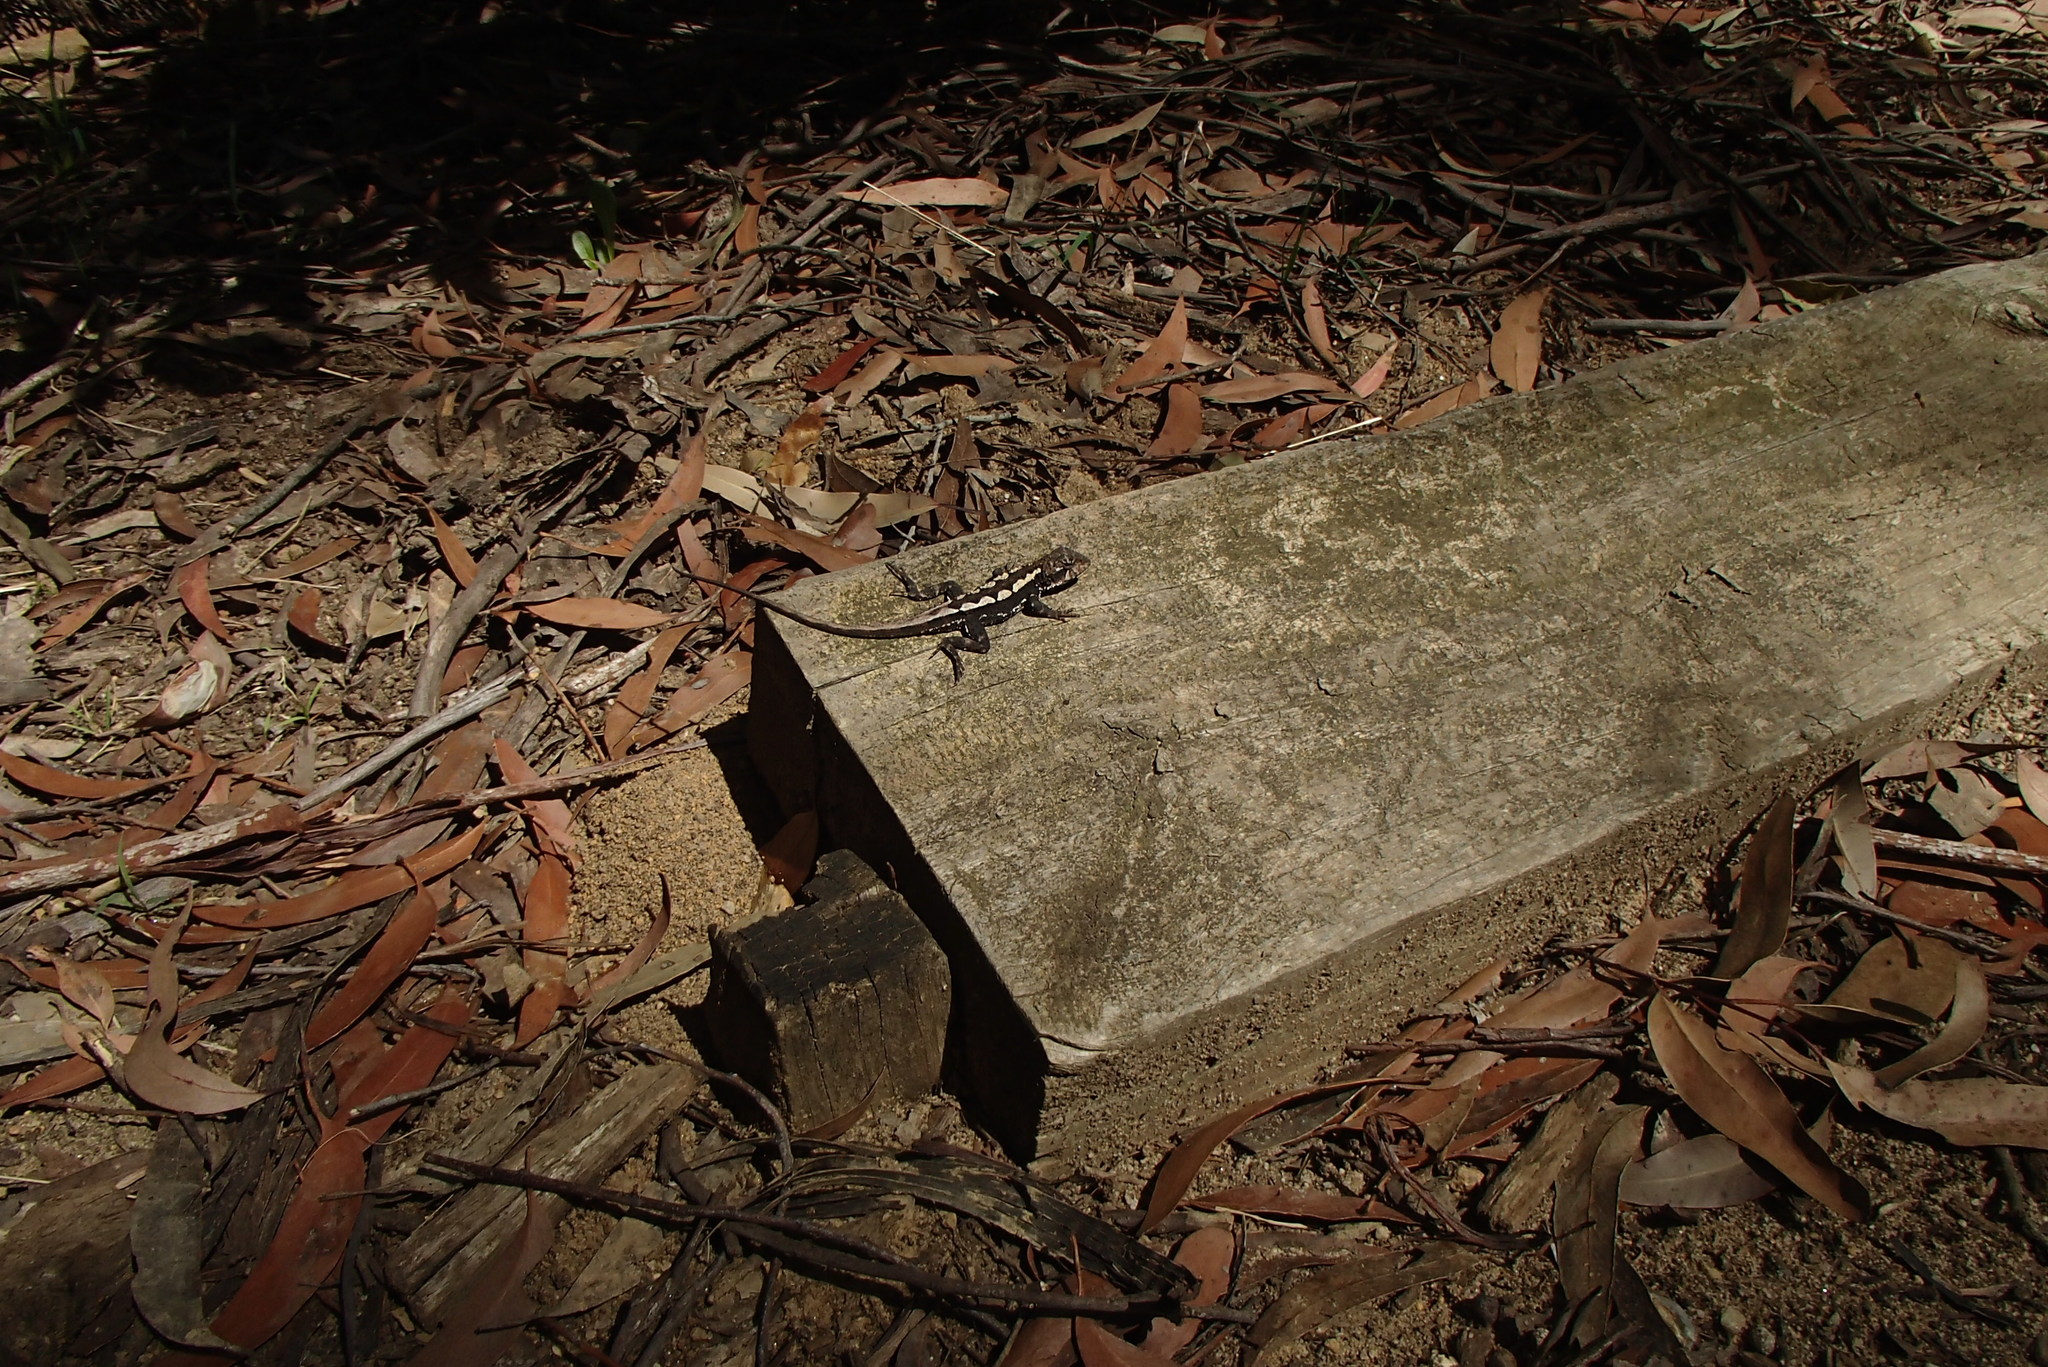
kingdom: Animalia
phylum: Chordata
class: Squamata
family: Agamidae
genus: Rankinia
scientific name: Rankinia diemensis
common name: Mountain dragon
